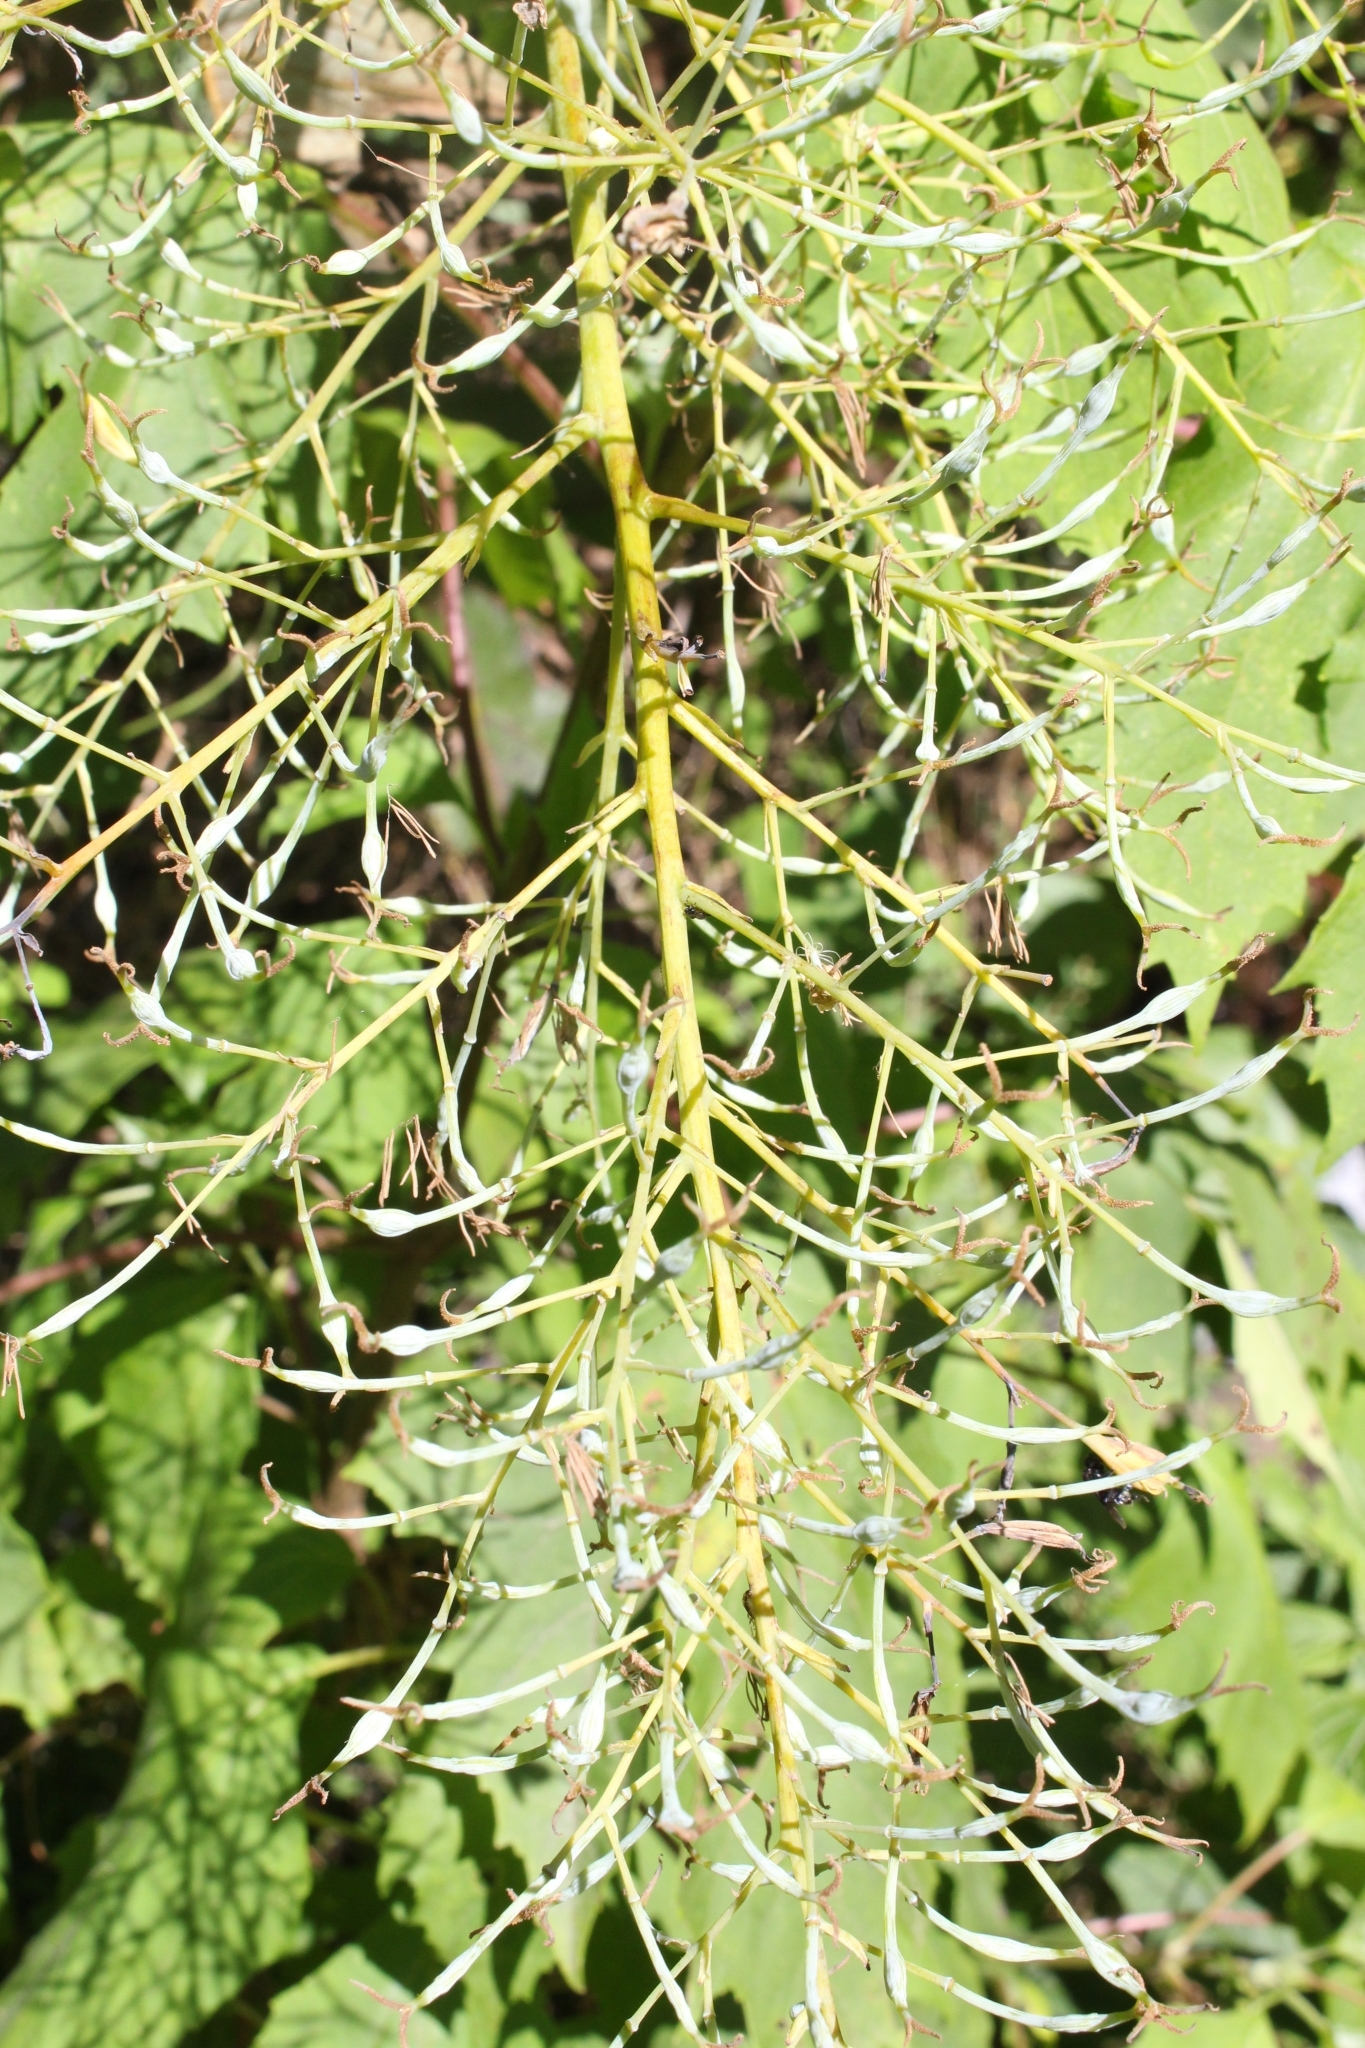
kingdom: Plantae
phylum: Tracheophyta
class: Magnoliopsida
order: Ranunculales
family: Papaveraceae
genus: Bocconia
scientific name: Bocconia frutescens
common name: Tree poppy
